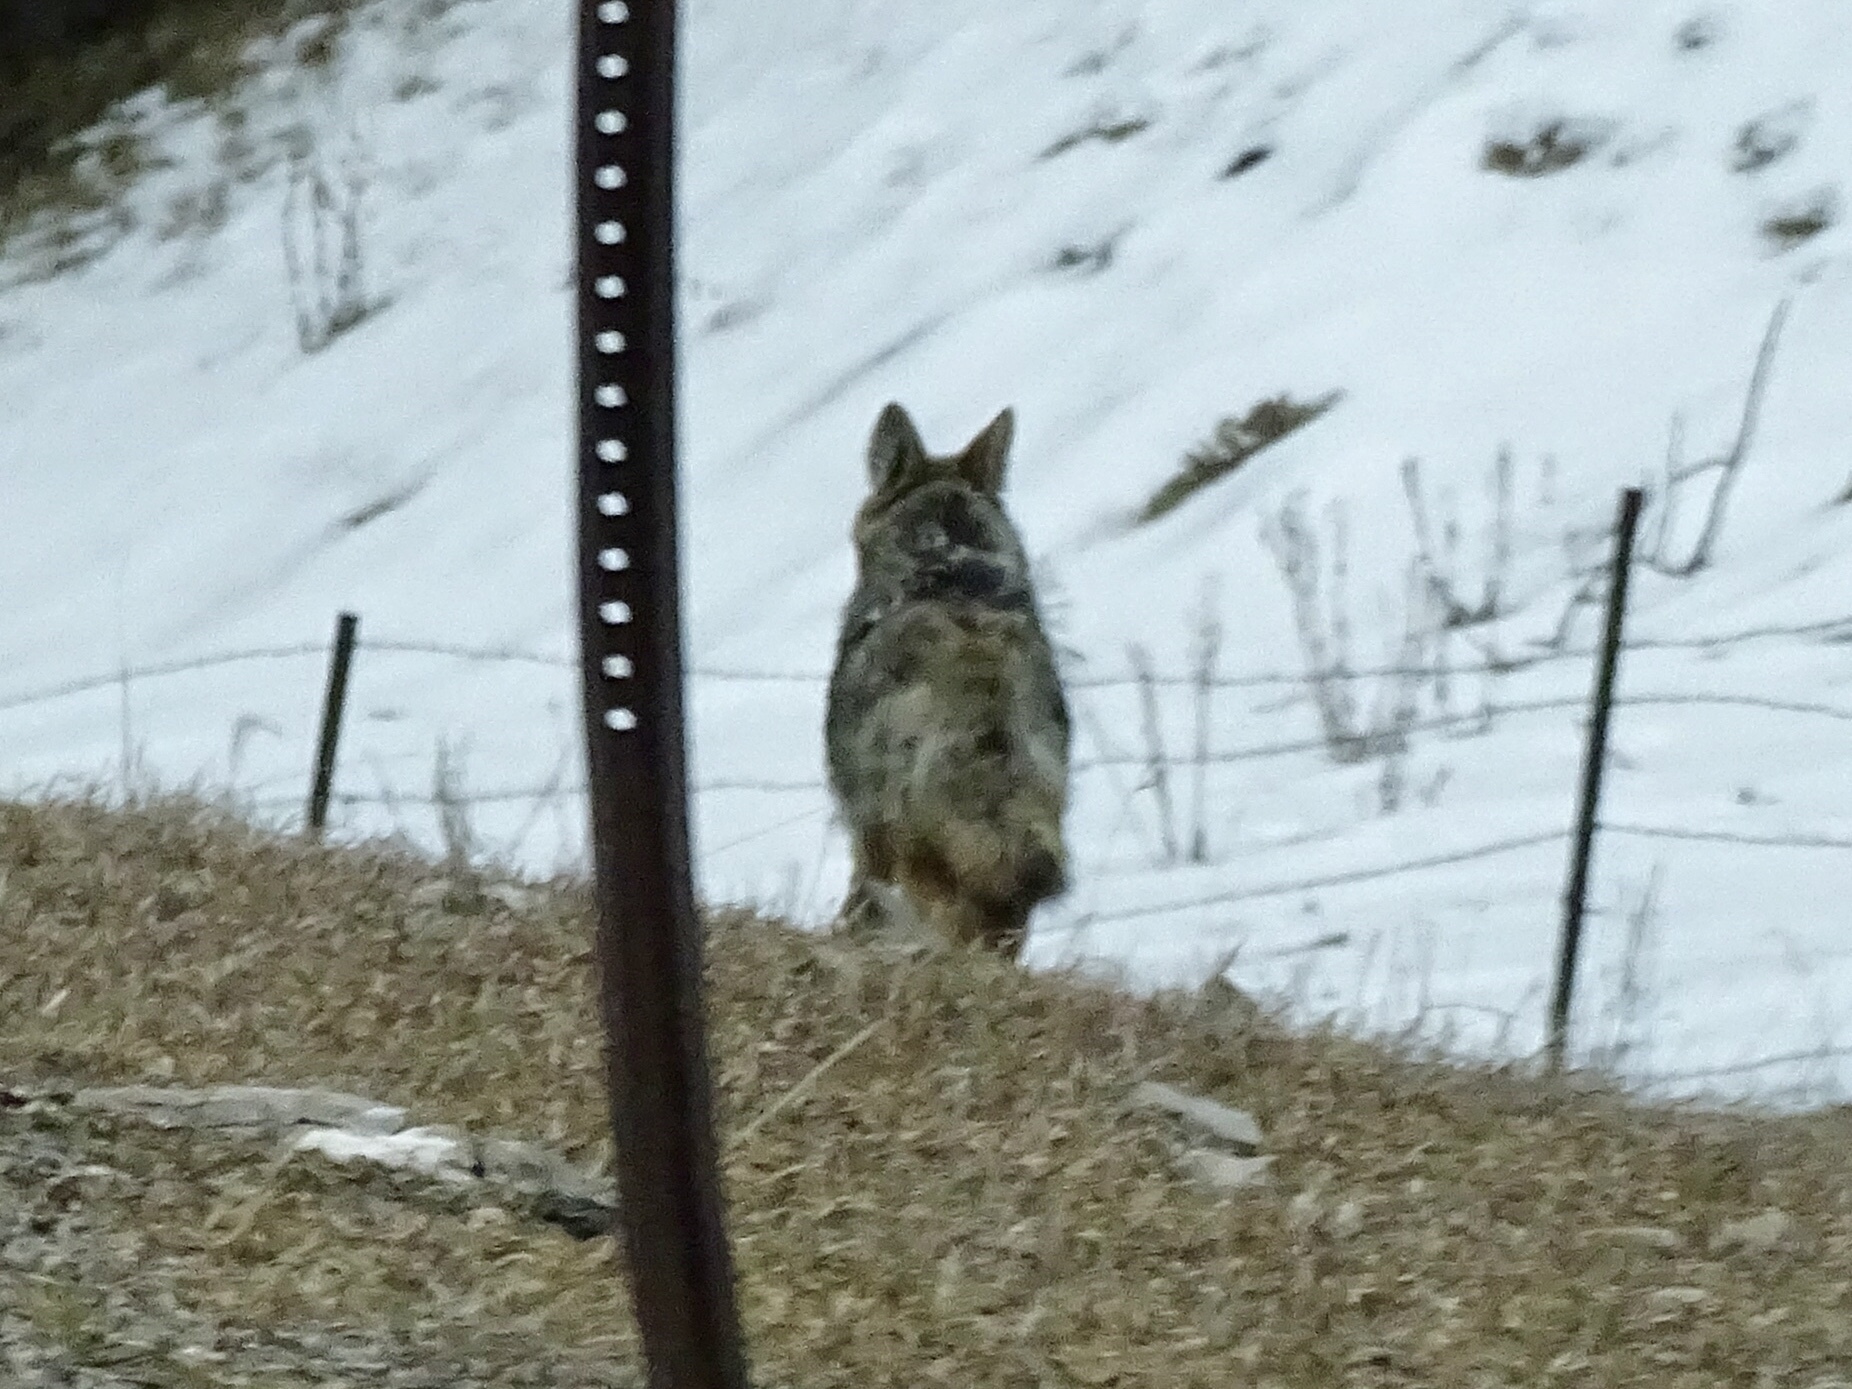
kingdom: Animalia
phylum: Chordata
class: Mammalia
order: Carnivora
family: Canidae
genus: Canis
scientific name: Canis latrans
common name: Coyote
